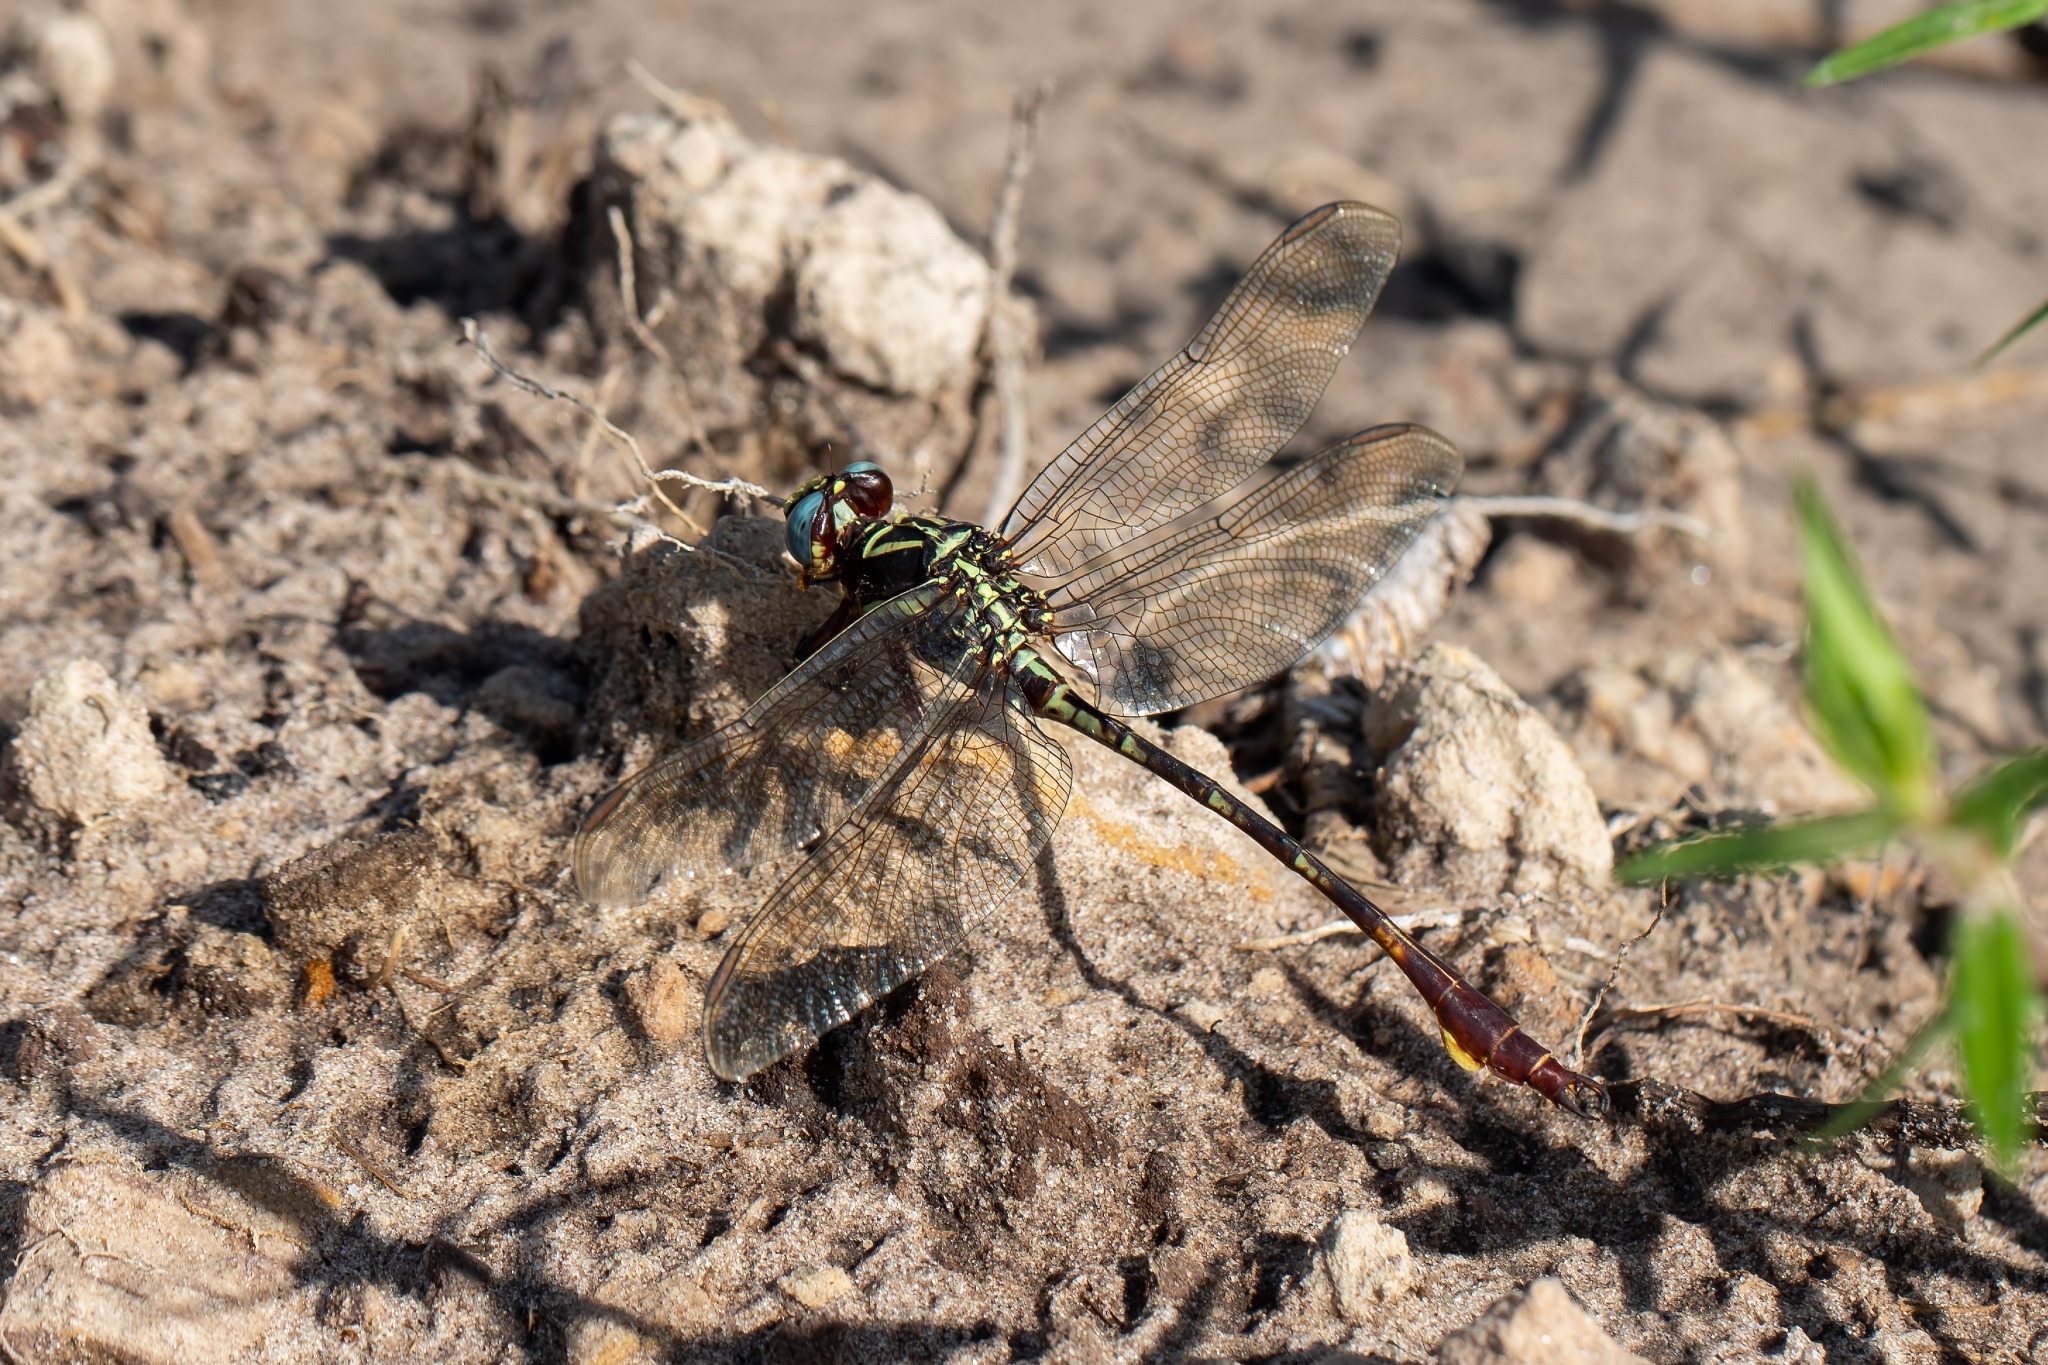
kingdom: Animalia
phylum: Arthropoda
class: Insecta
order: Odonata
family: Gomphidae
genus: Aphylla
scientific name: Aphylla williamsoni
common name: Two-striped forceptail
